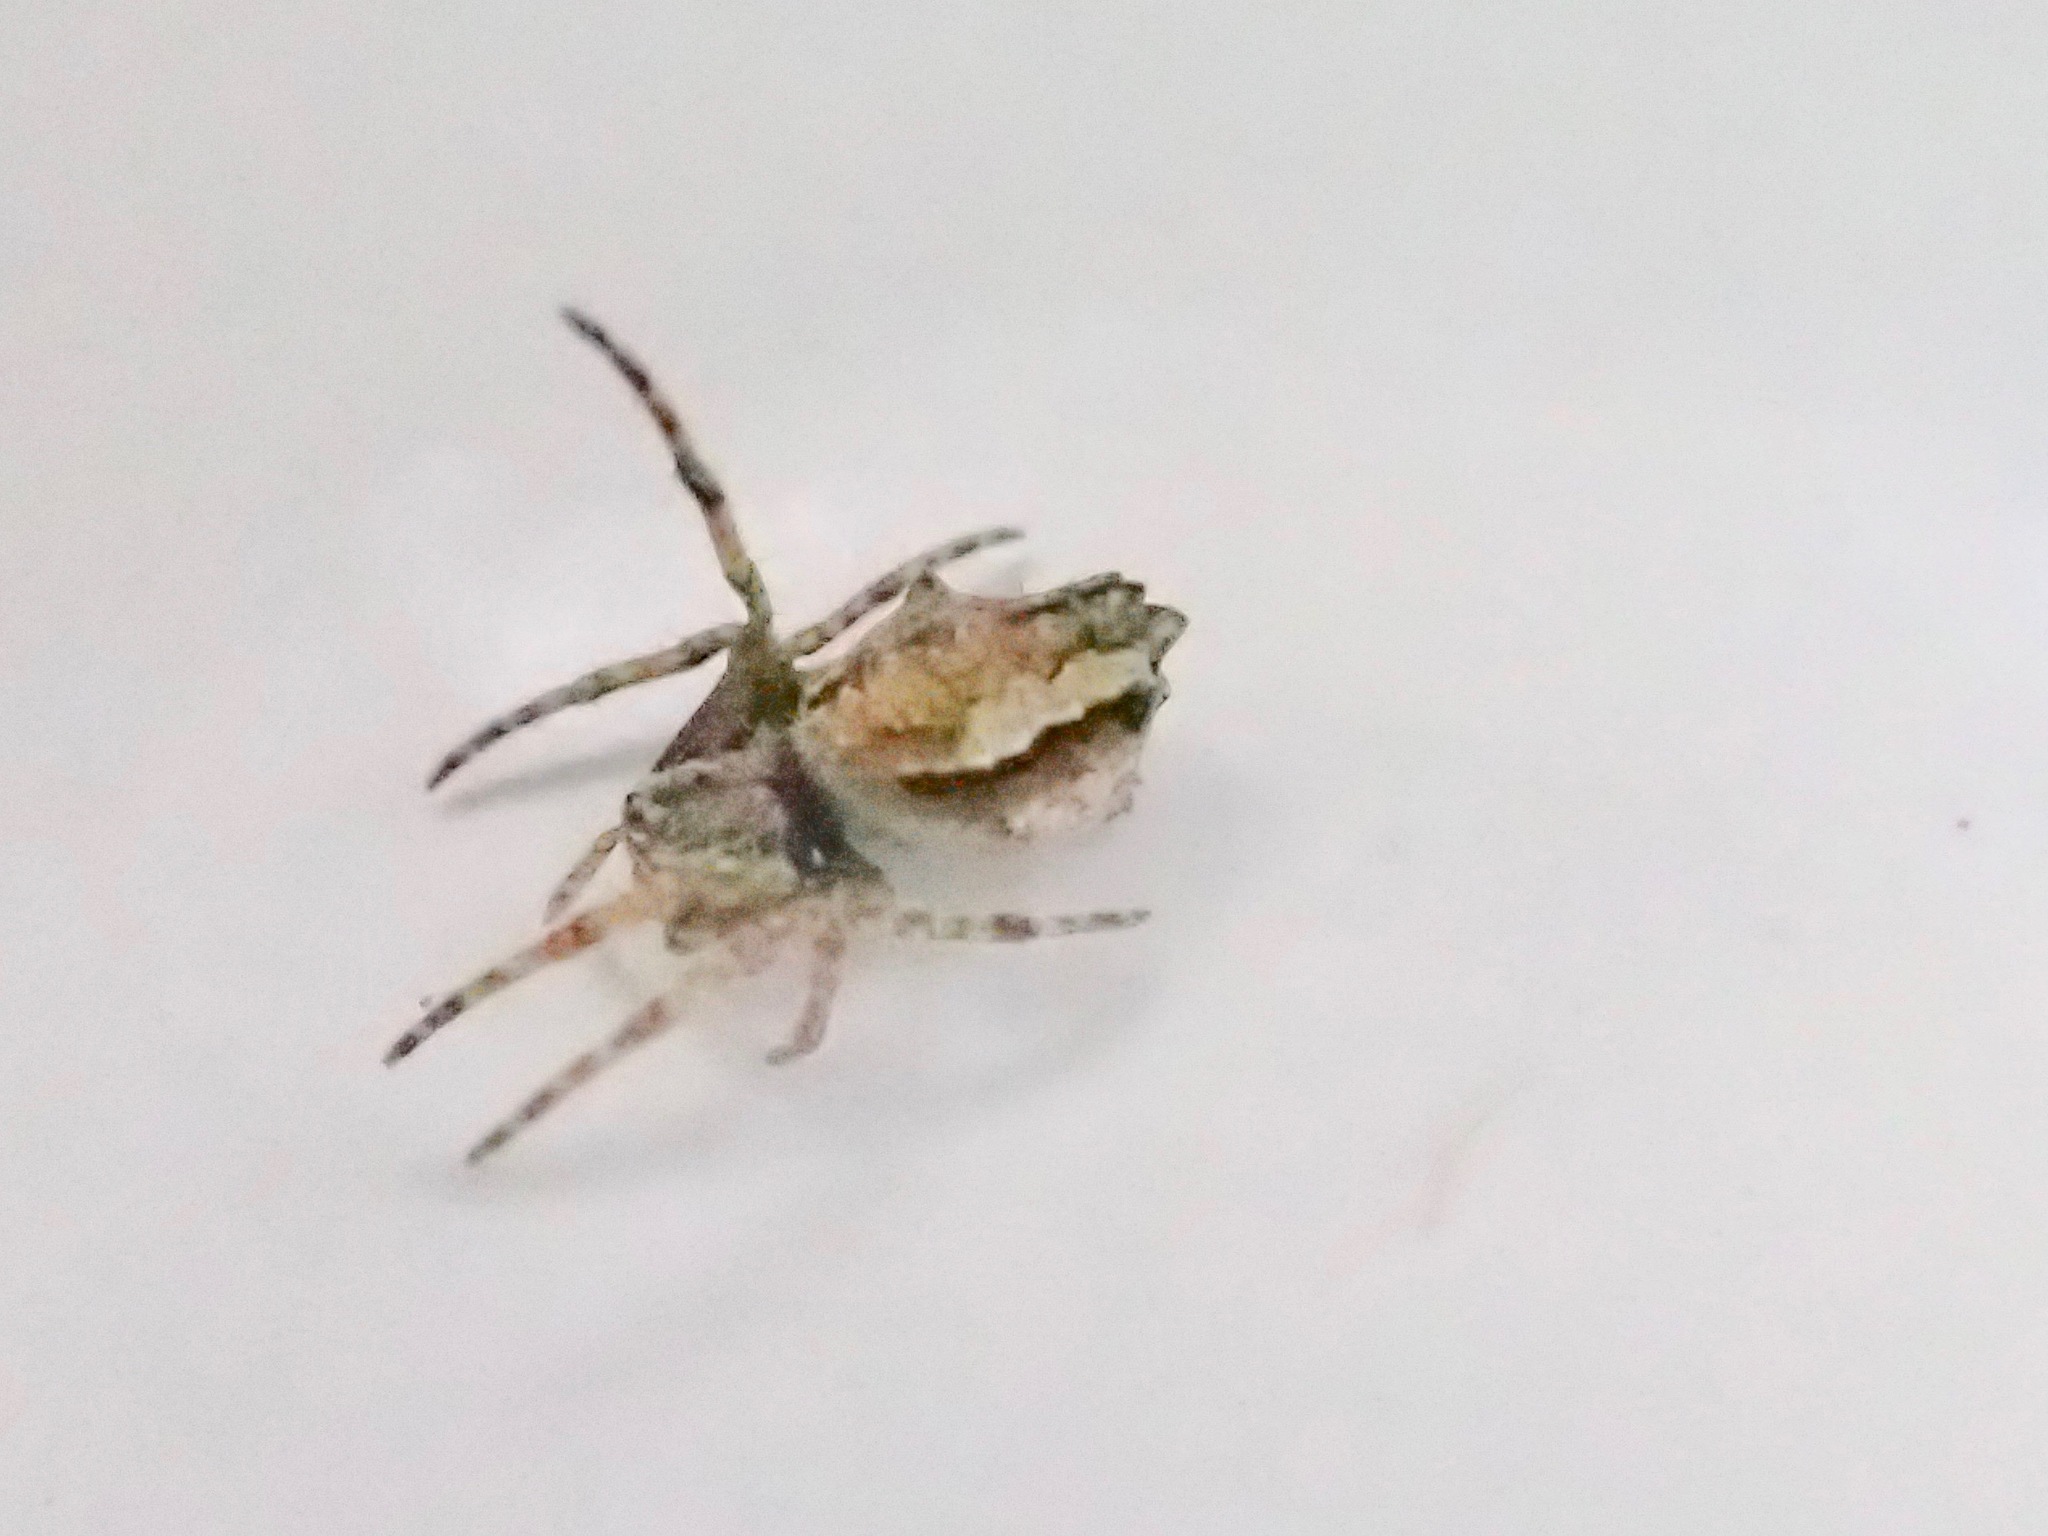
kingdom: Animalia
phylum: Arthropoda
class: Arachnida
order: Araneae
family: Araneidae
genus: Eriophora
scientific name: Eriophora pustulosa
